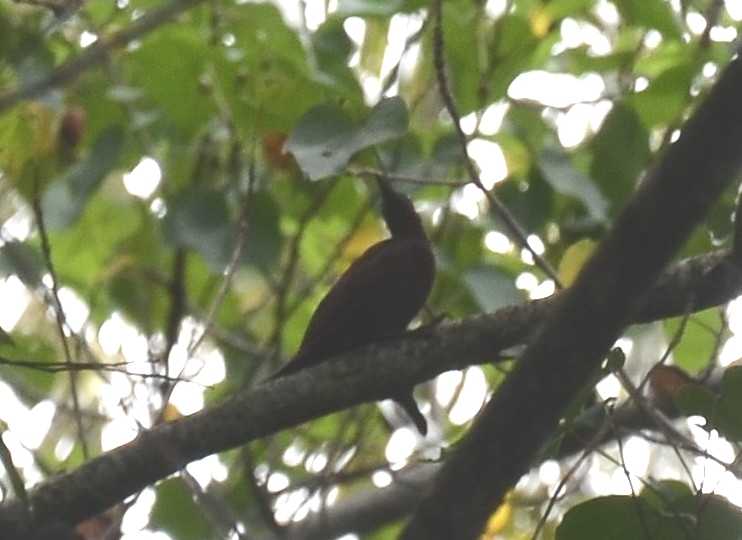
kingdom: Animalia
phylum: Chordata
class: Aves
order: Piciformes
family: Picidae
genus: Micropternus
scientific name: Micropternus brachyurus
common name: Rufous woodpecker
